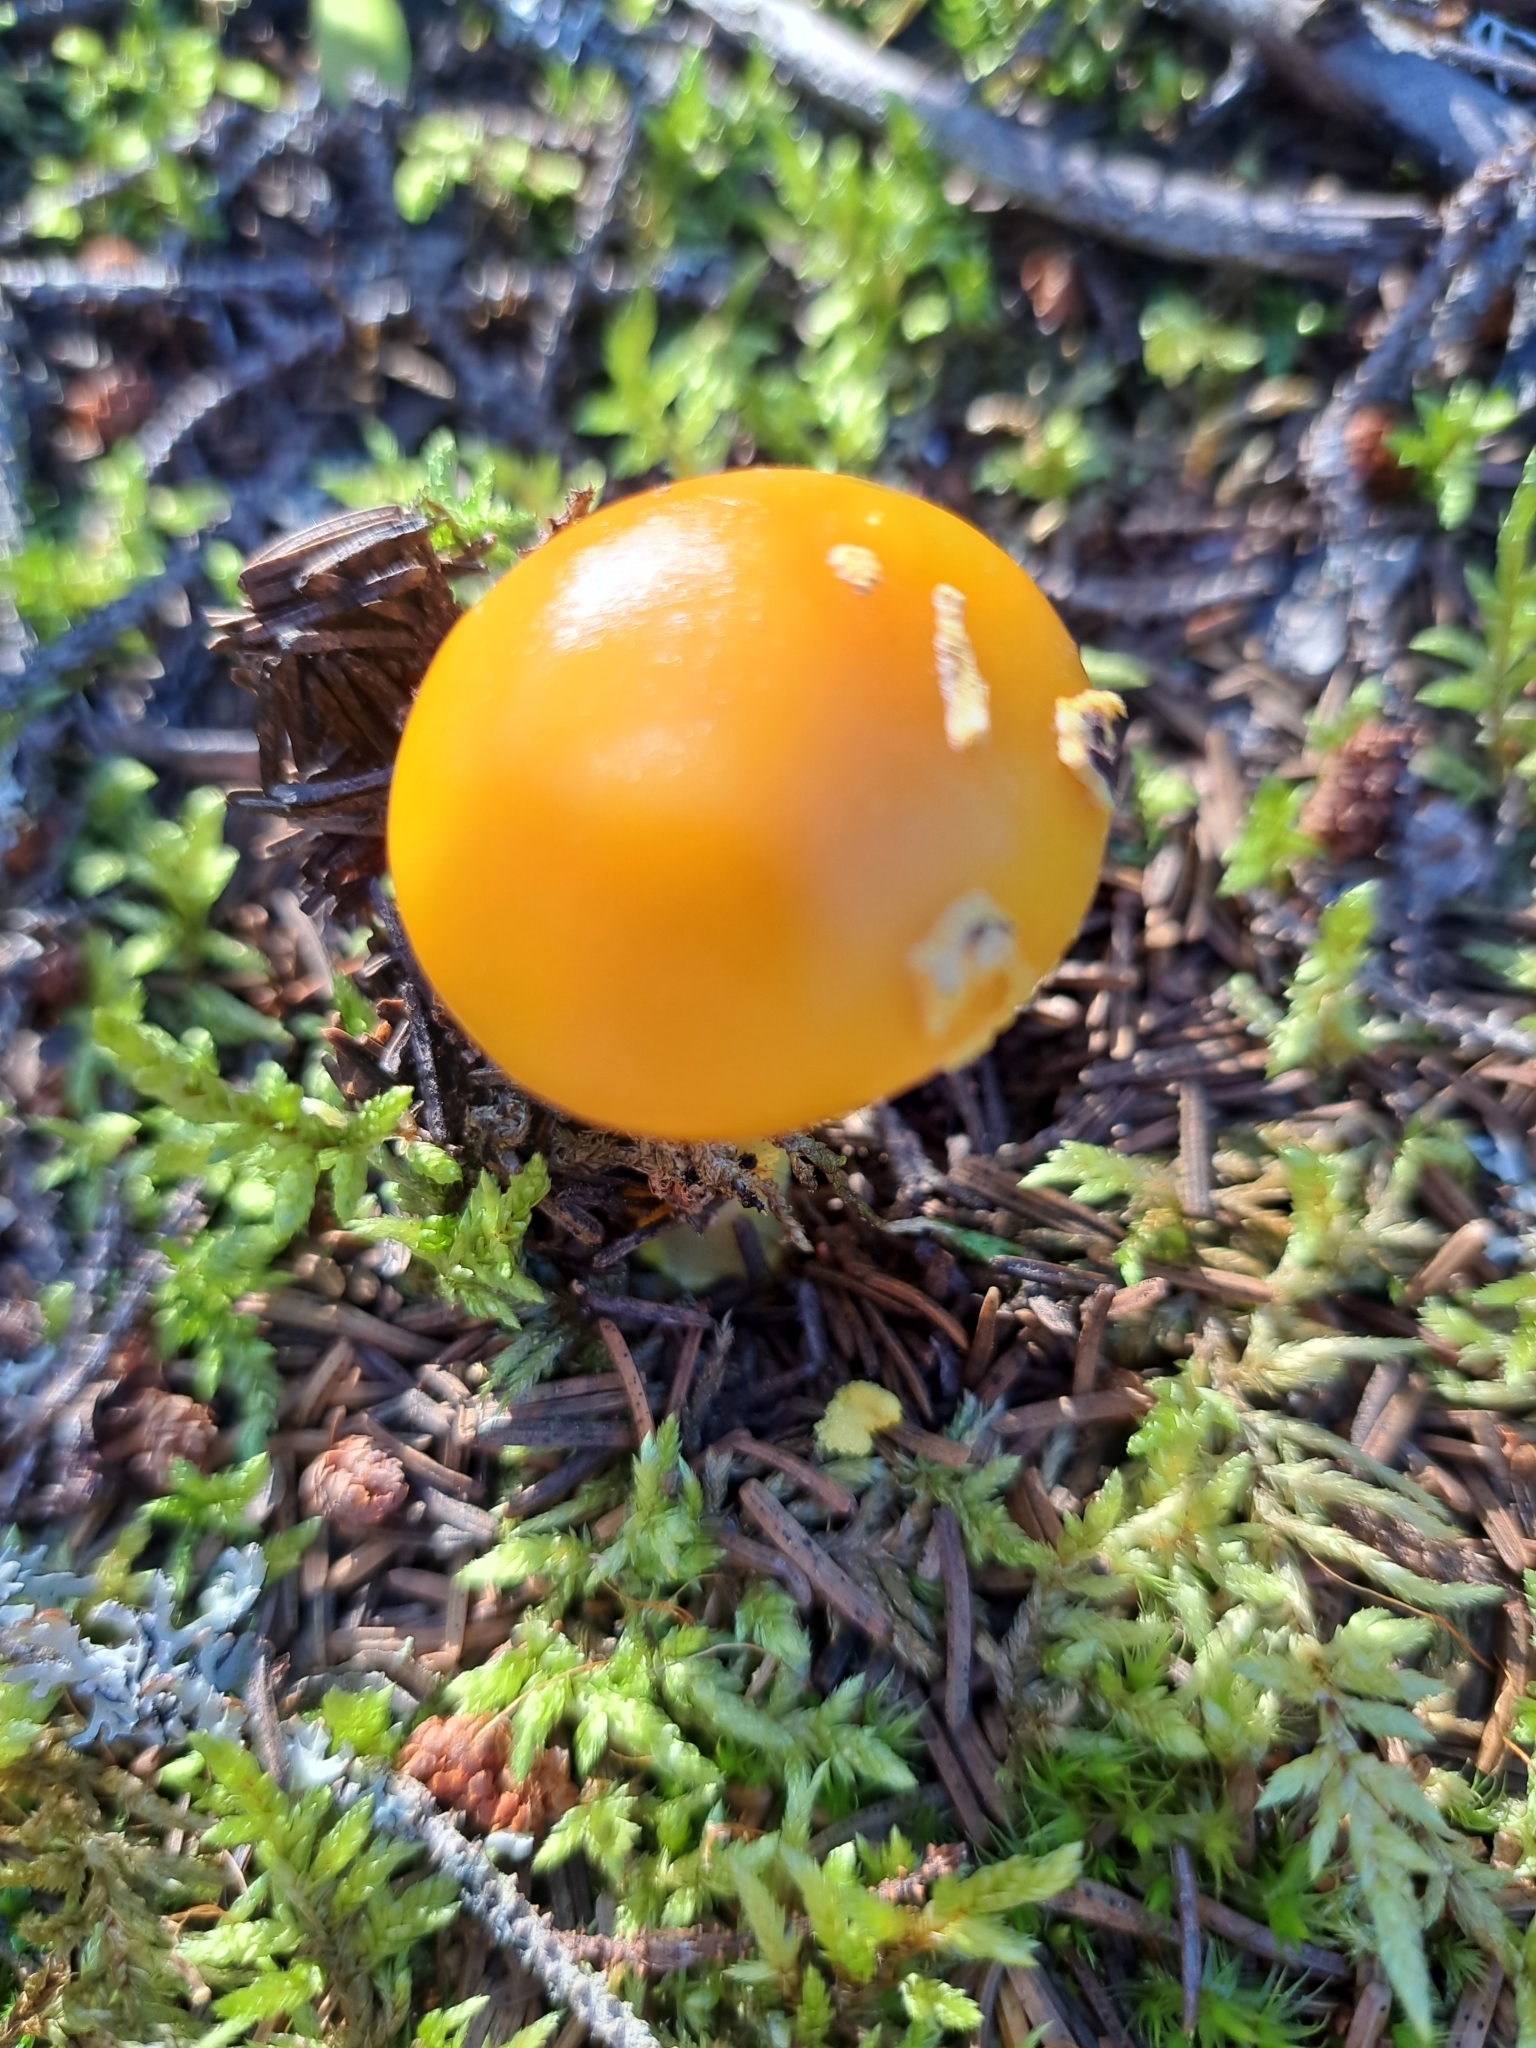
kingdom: Fungi
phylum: Basidiomycota
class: Agaricomycetes
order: Agaricales
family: Amanitaceae
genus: Amanita
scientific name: Amanita flavoconia
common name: Yellow patches
